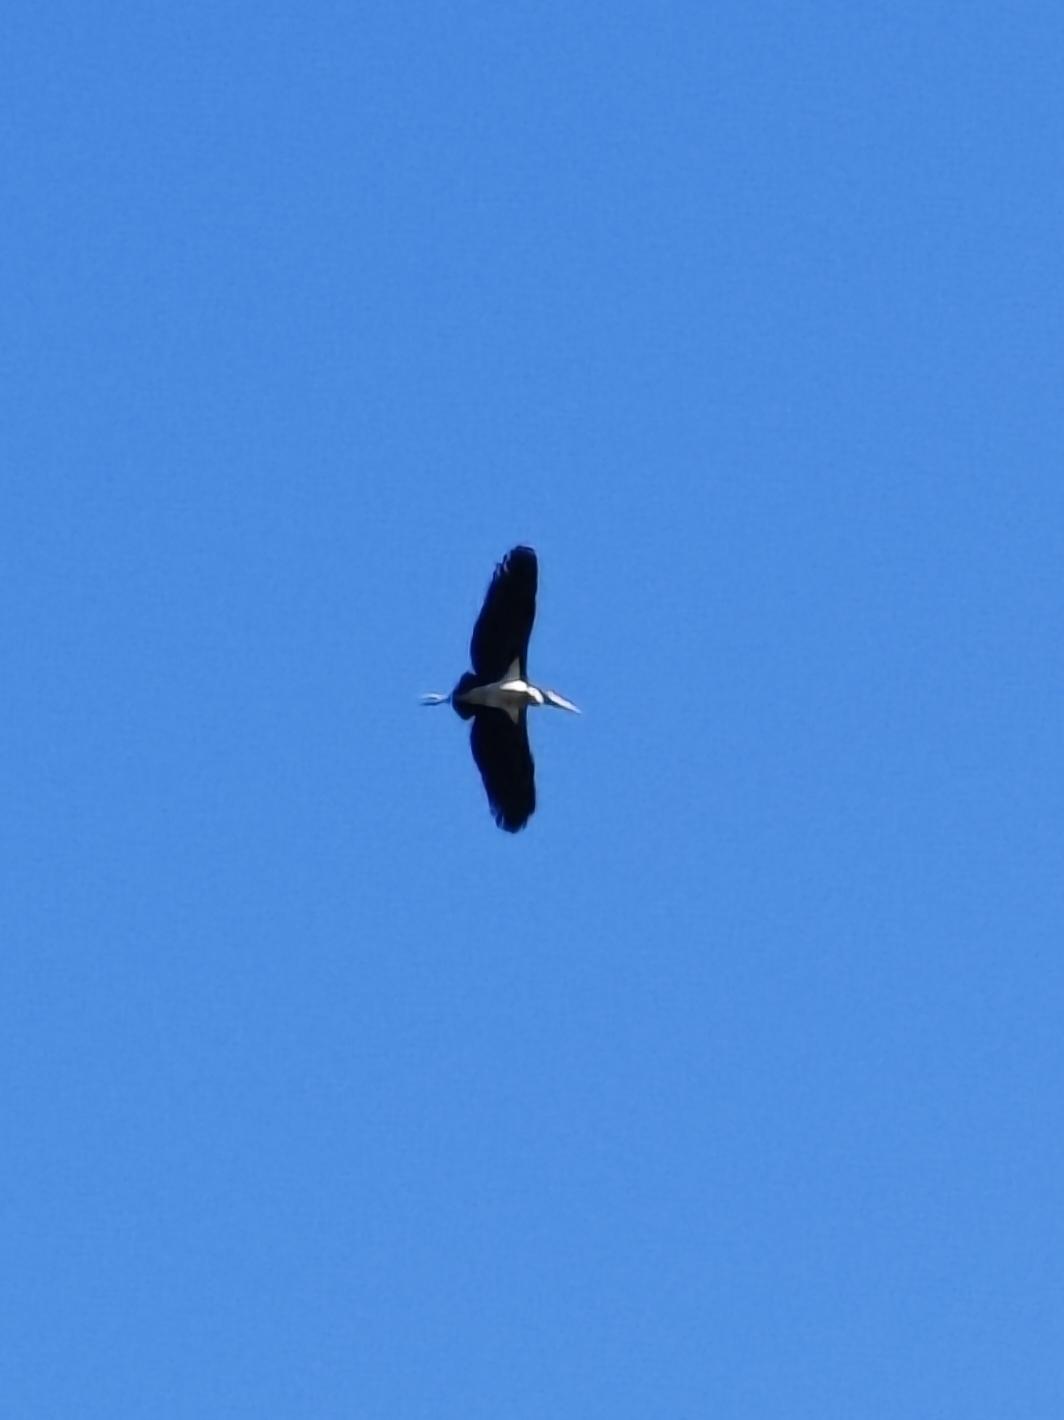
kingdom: Animalia
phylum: Chordata
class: Aves
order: Ciconiiformes
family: Ciconiidae
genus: Leptoptilos
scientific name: Leptoptilos javanicus
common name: Lesser adjutant
